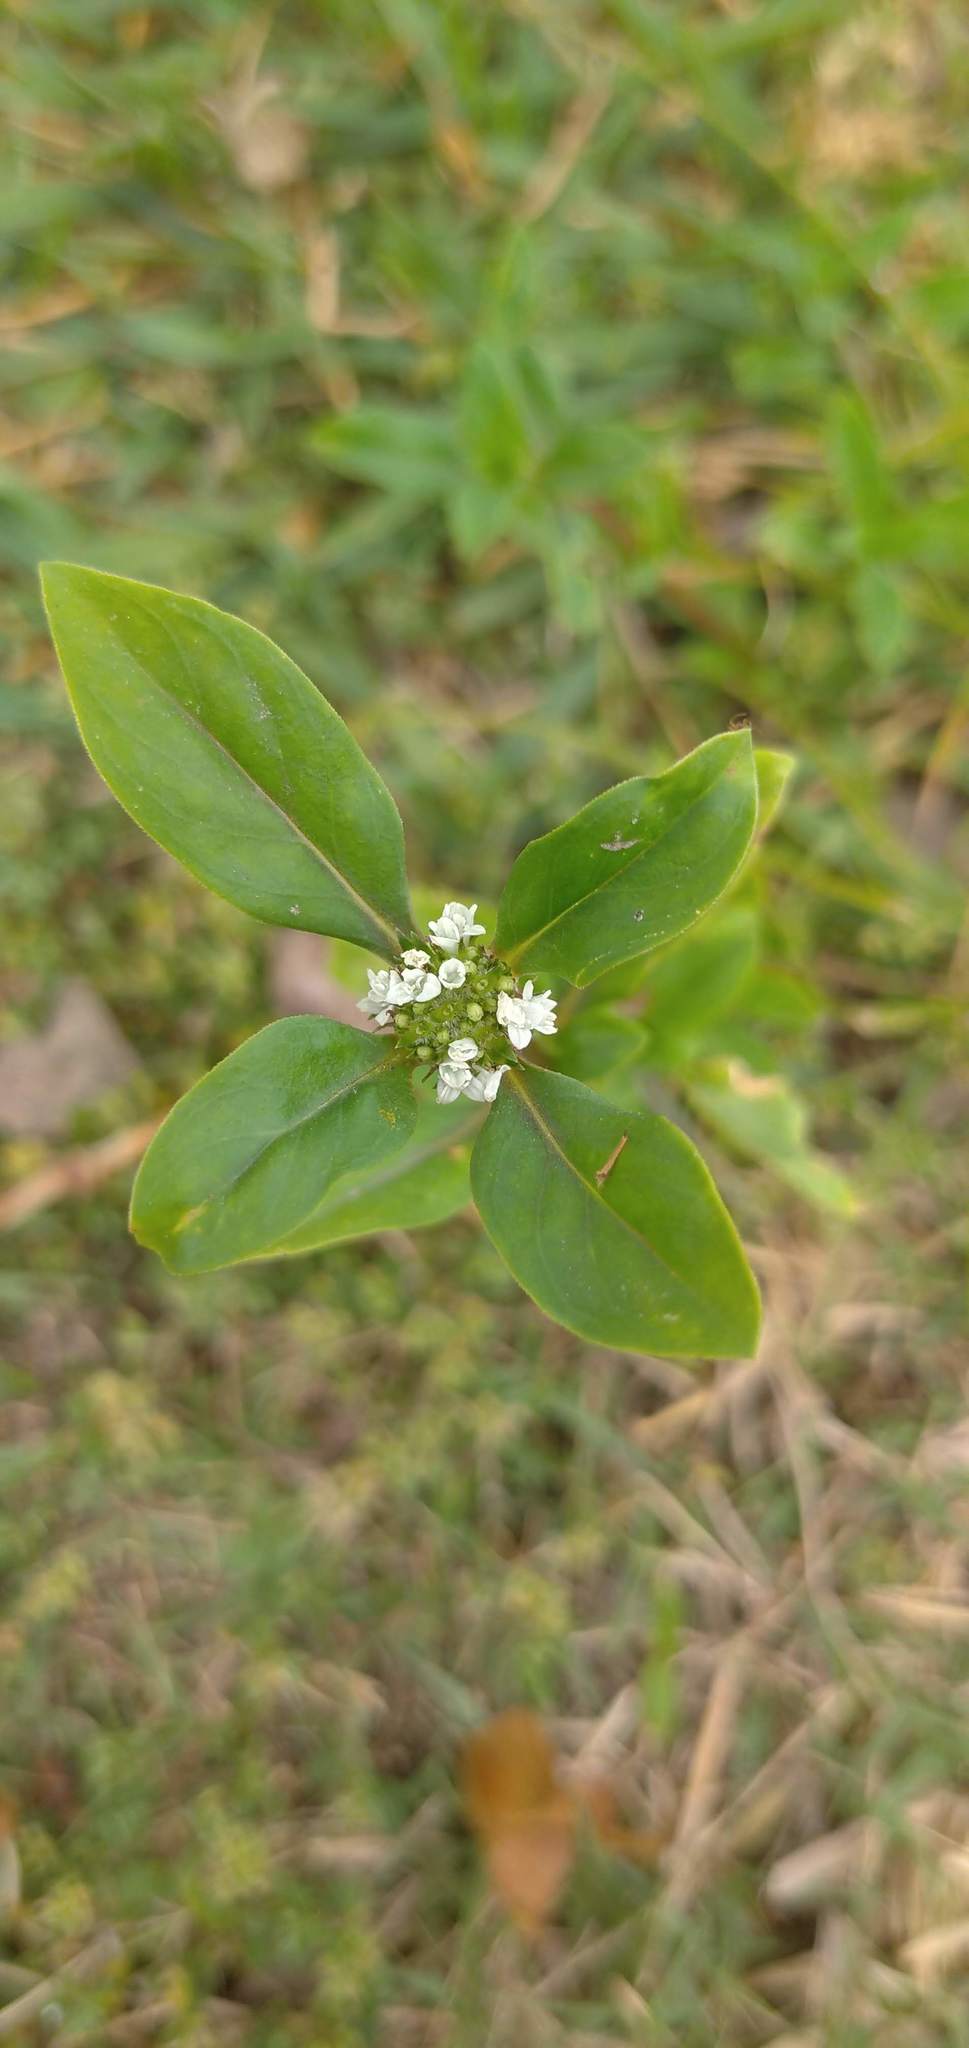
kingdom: Plantae
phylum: Tracheophyta
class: Magnoliopsida
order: Gentianales
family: Rubiaceae
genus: Spermacoce
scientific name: Spermacoce dasycephala
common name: False buttonweed
